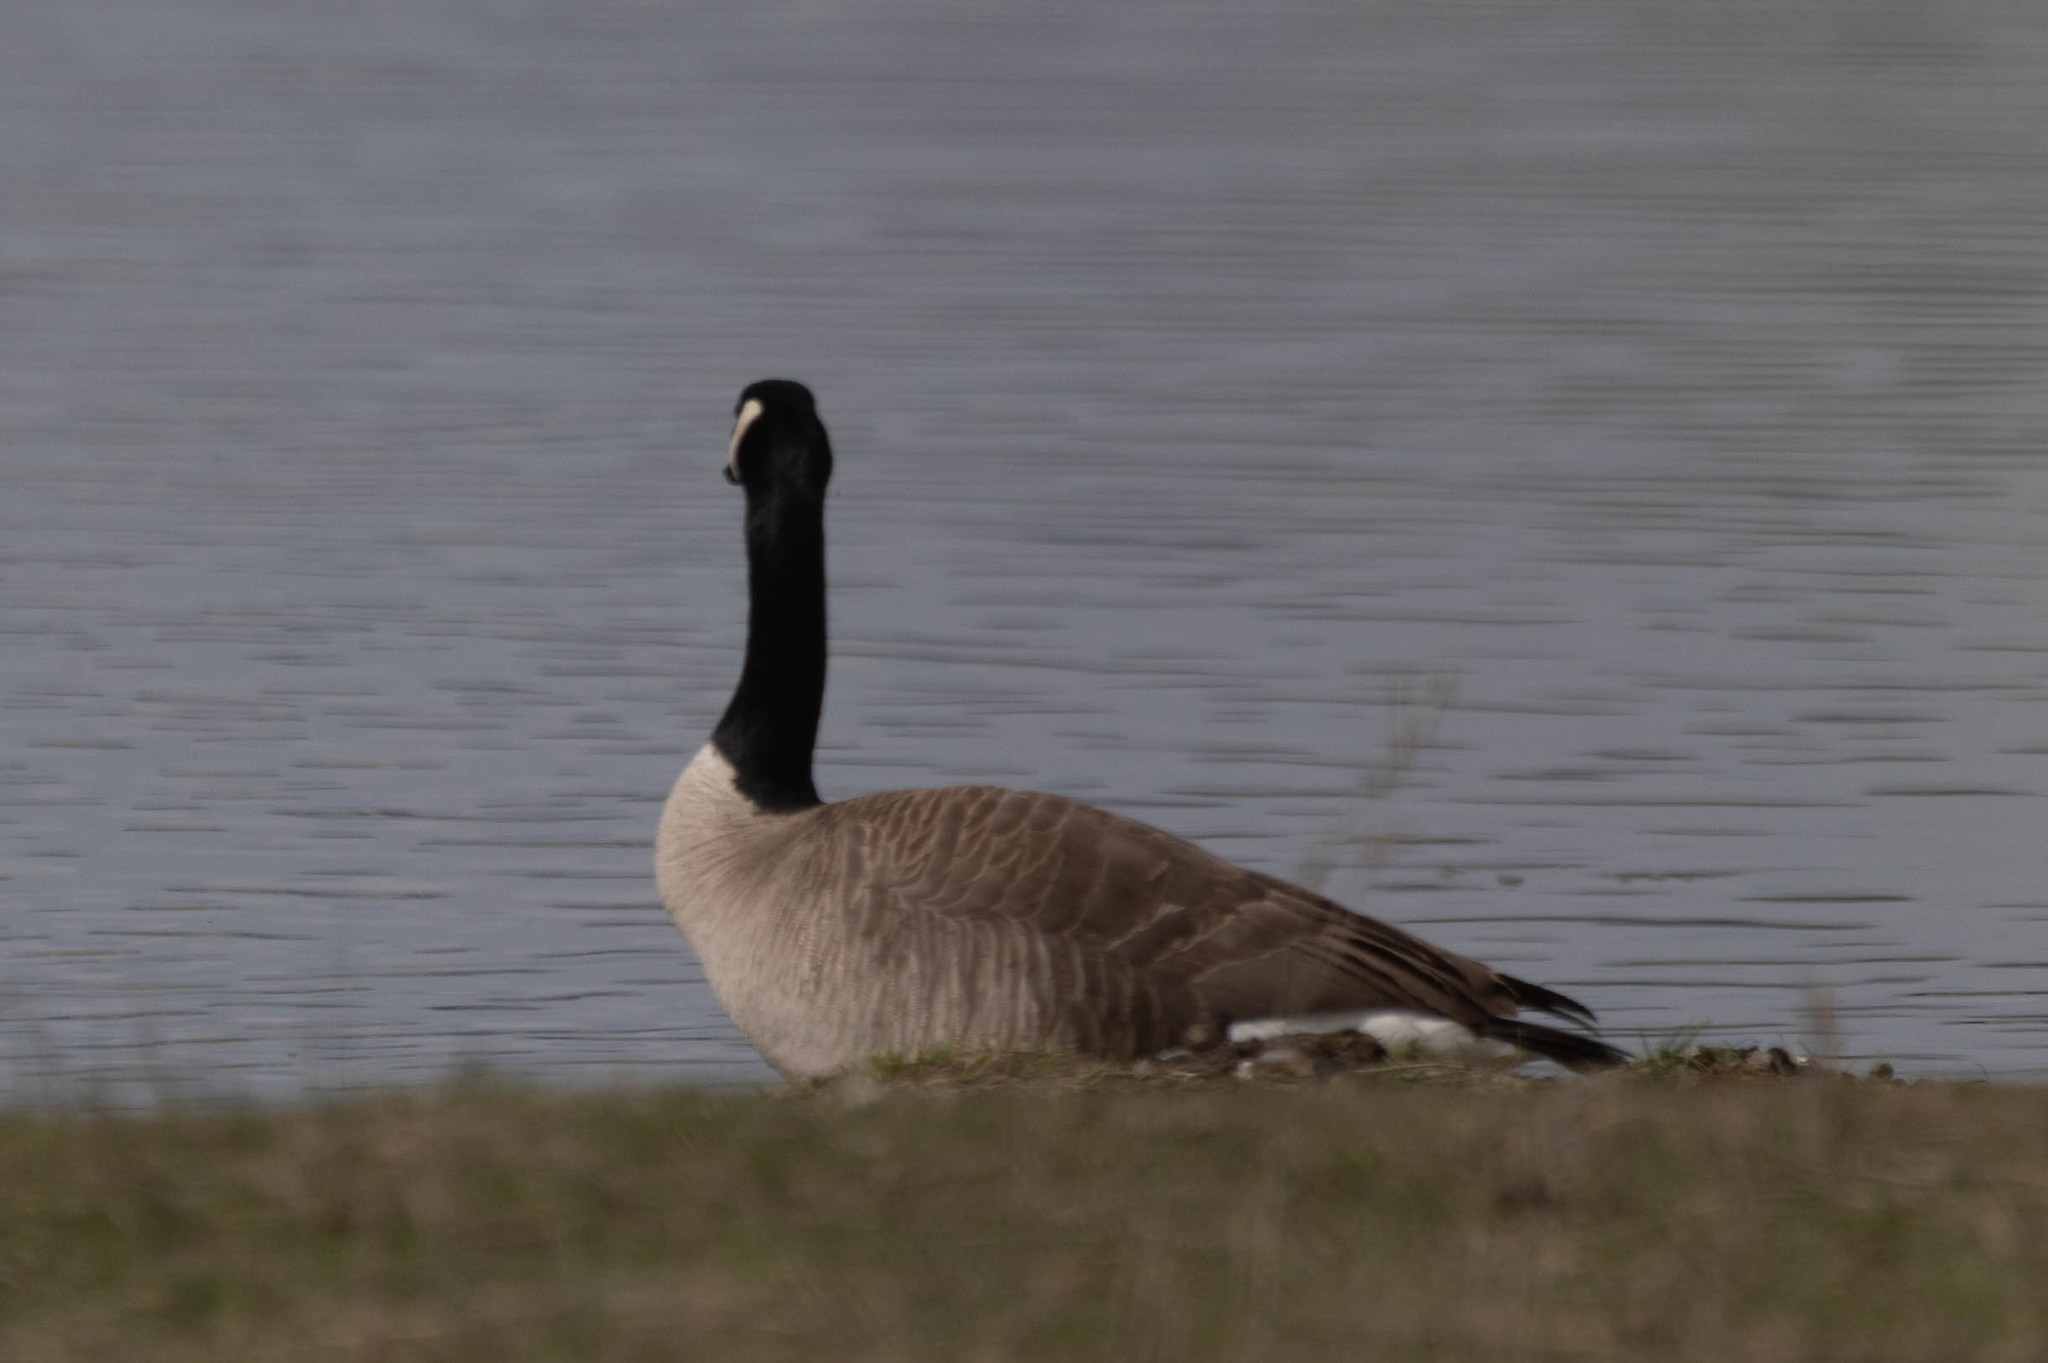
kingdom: Animalia
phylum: Chordata
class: Aves
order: Anseriformes
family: Anatidae
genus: Branta
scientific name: Branta canadensis
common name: Canada goose
